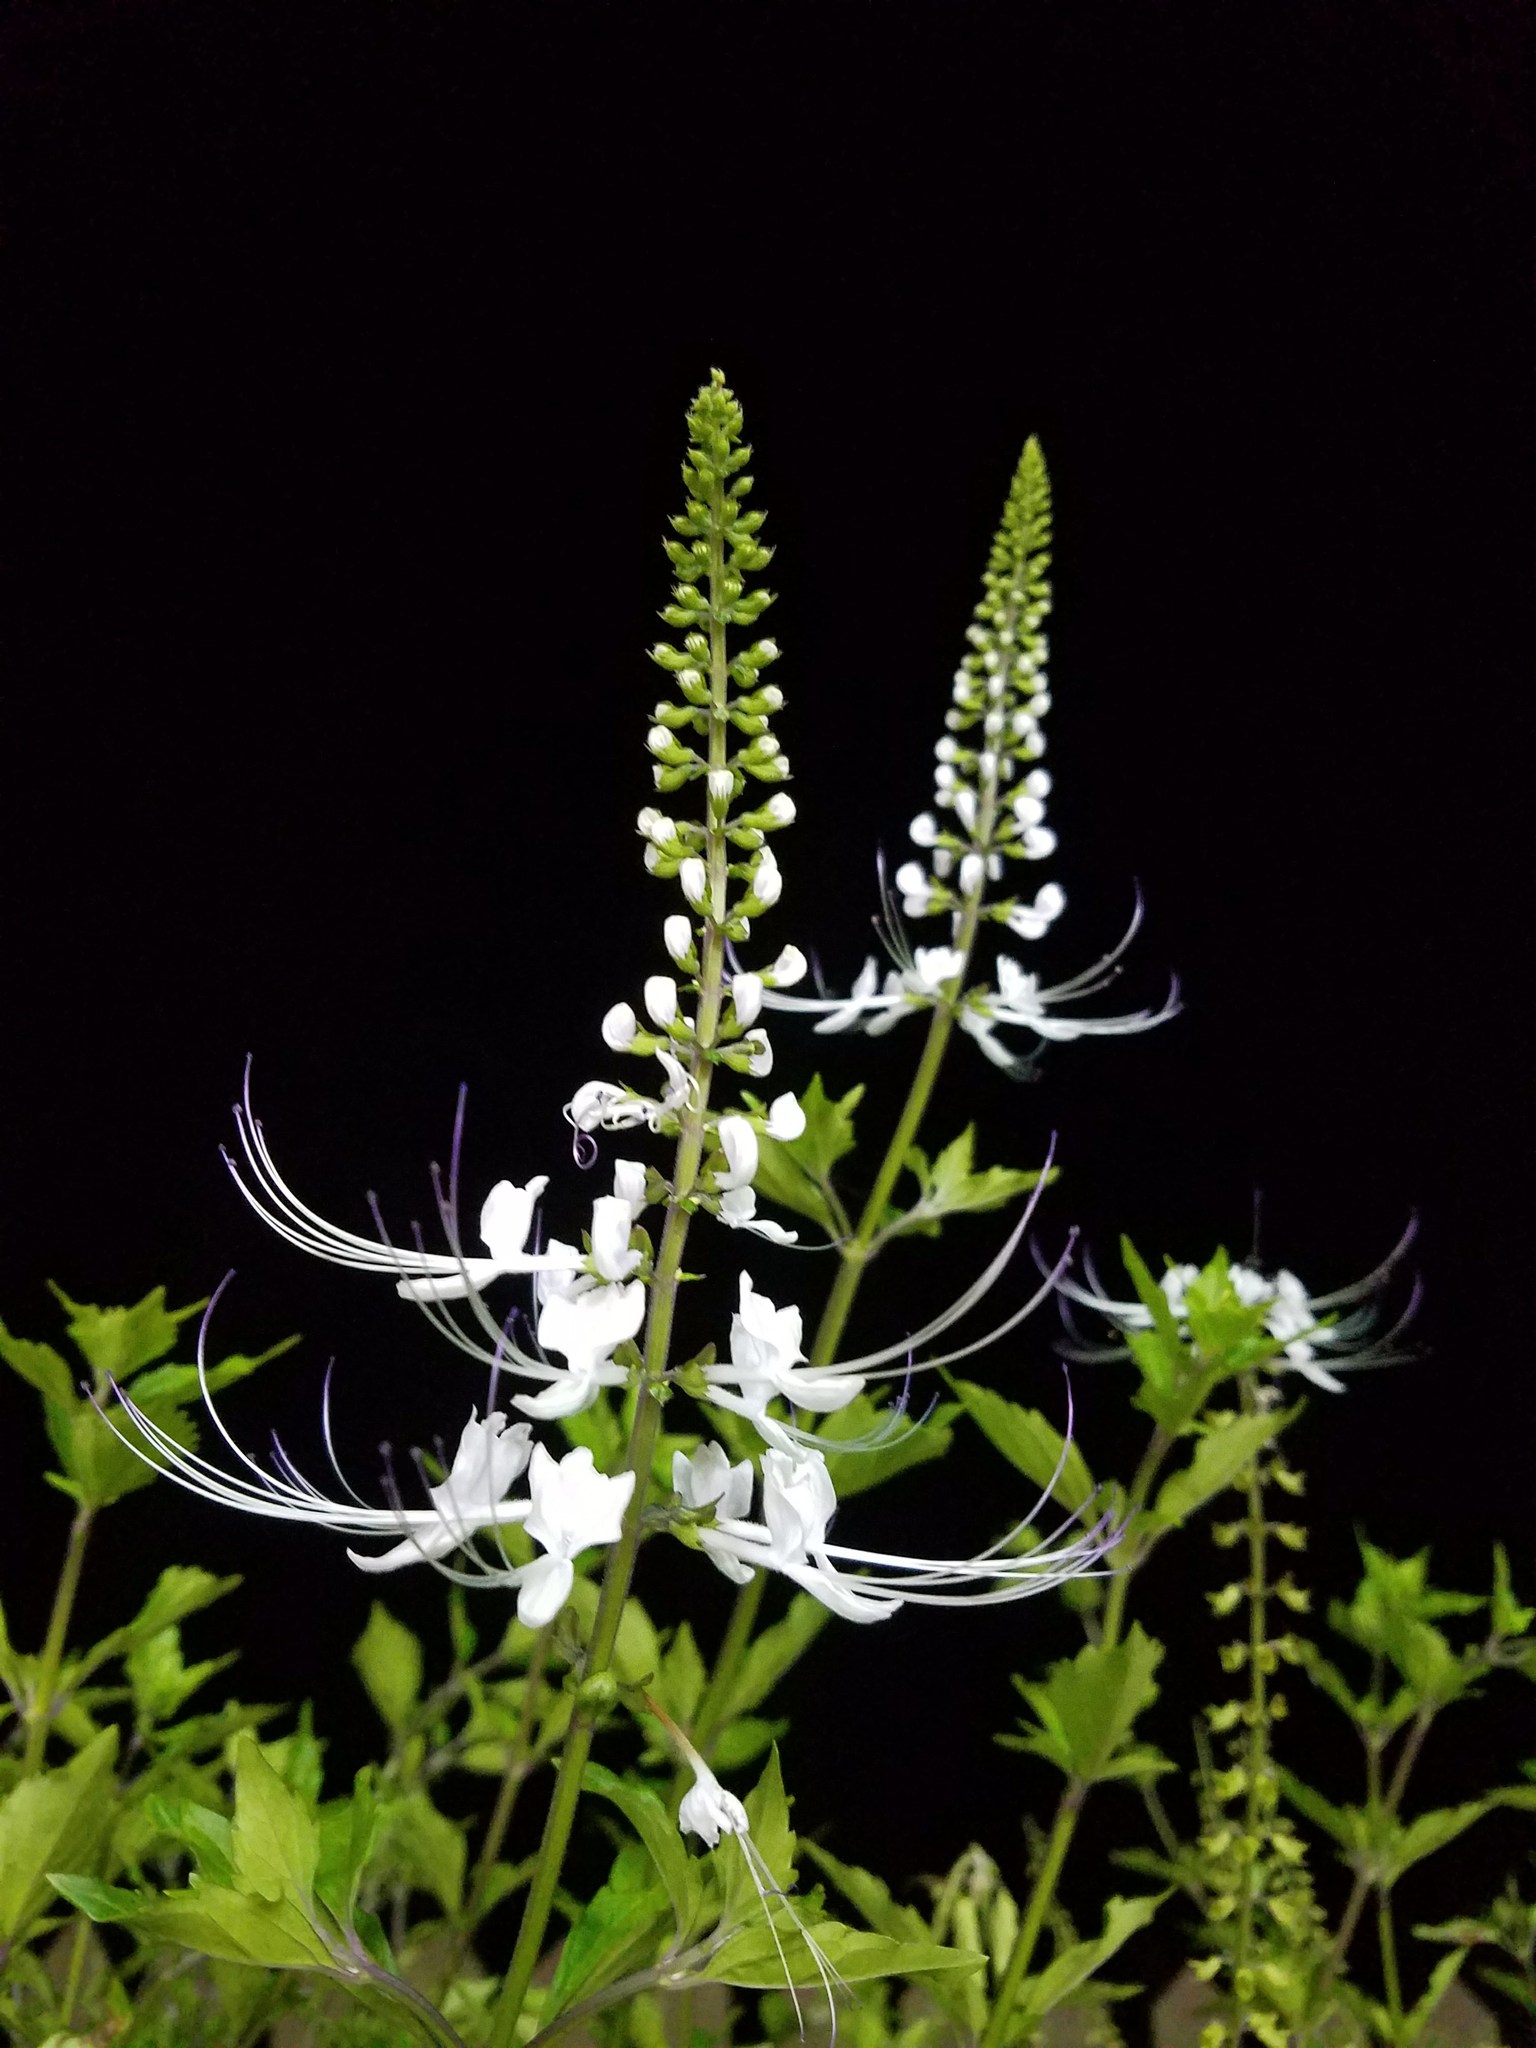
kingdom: Plantae
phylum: Tracheophyta
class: Magnoliopsida
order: Lamiales
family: Lamiaceae
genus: Orthosiphon
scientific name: Orthosiphon aristatus
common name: Whiskerplant
